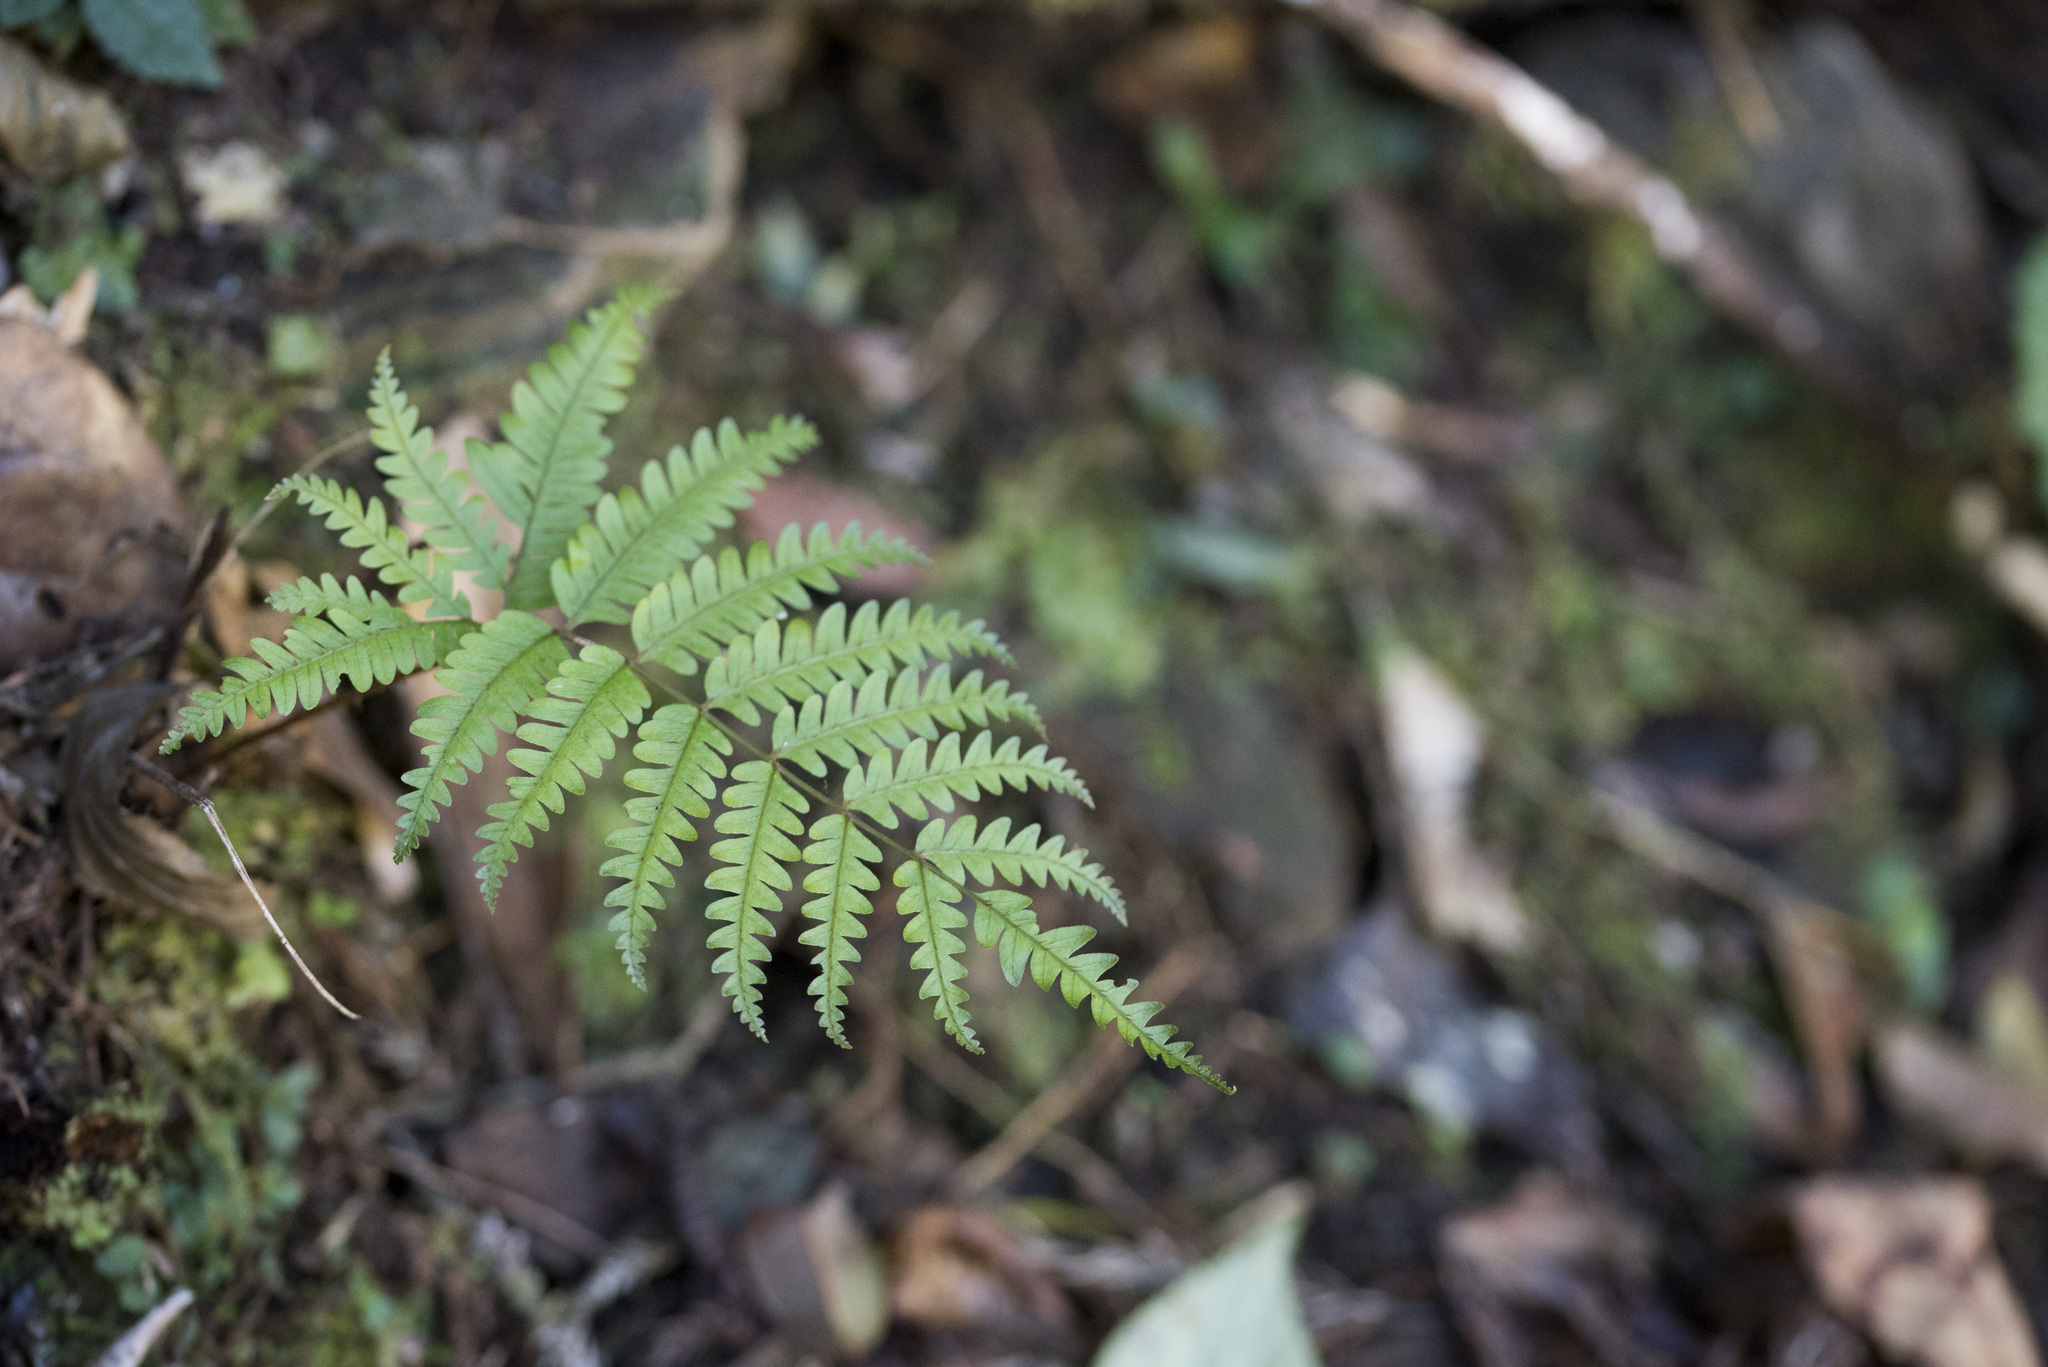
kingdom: Plantae
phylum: Tracheophyta
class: Polypodiopsida
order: Polypodiales
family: Pteridaceae
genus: Pteris
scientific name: Pteris setulosocostulata
